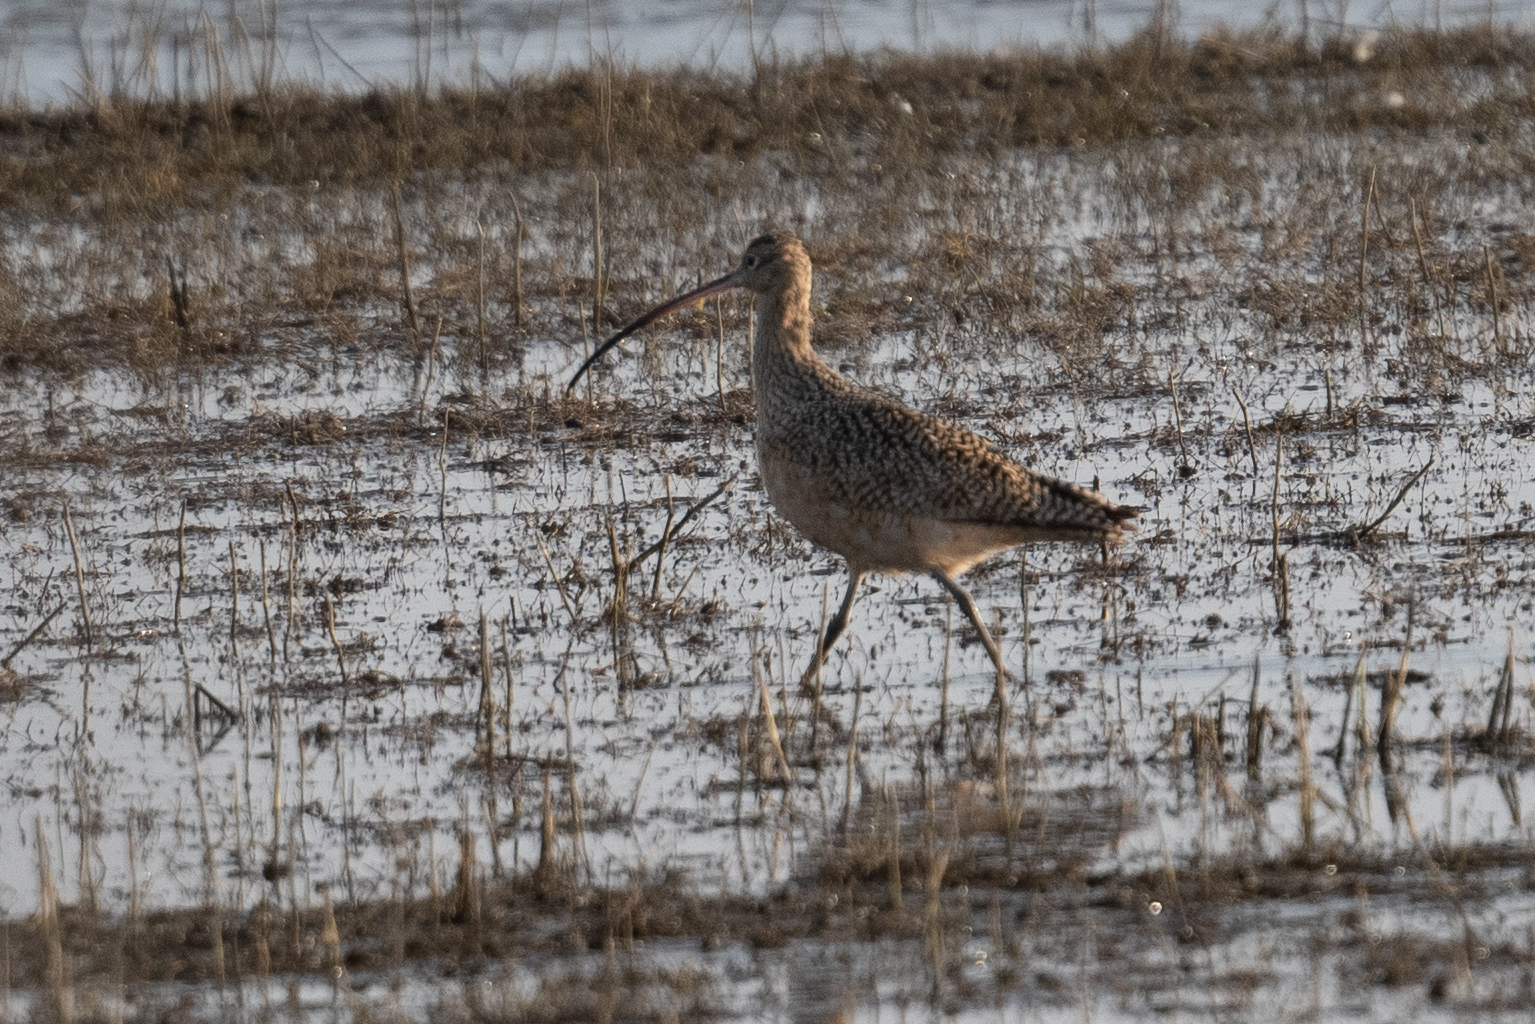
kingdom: Animalia
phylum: Chordata
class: Aves
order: Charadriiformes
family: Scolopacidae
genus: Numenius
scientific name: Numenius americanus
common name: Long-billed curlew
